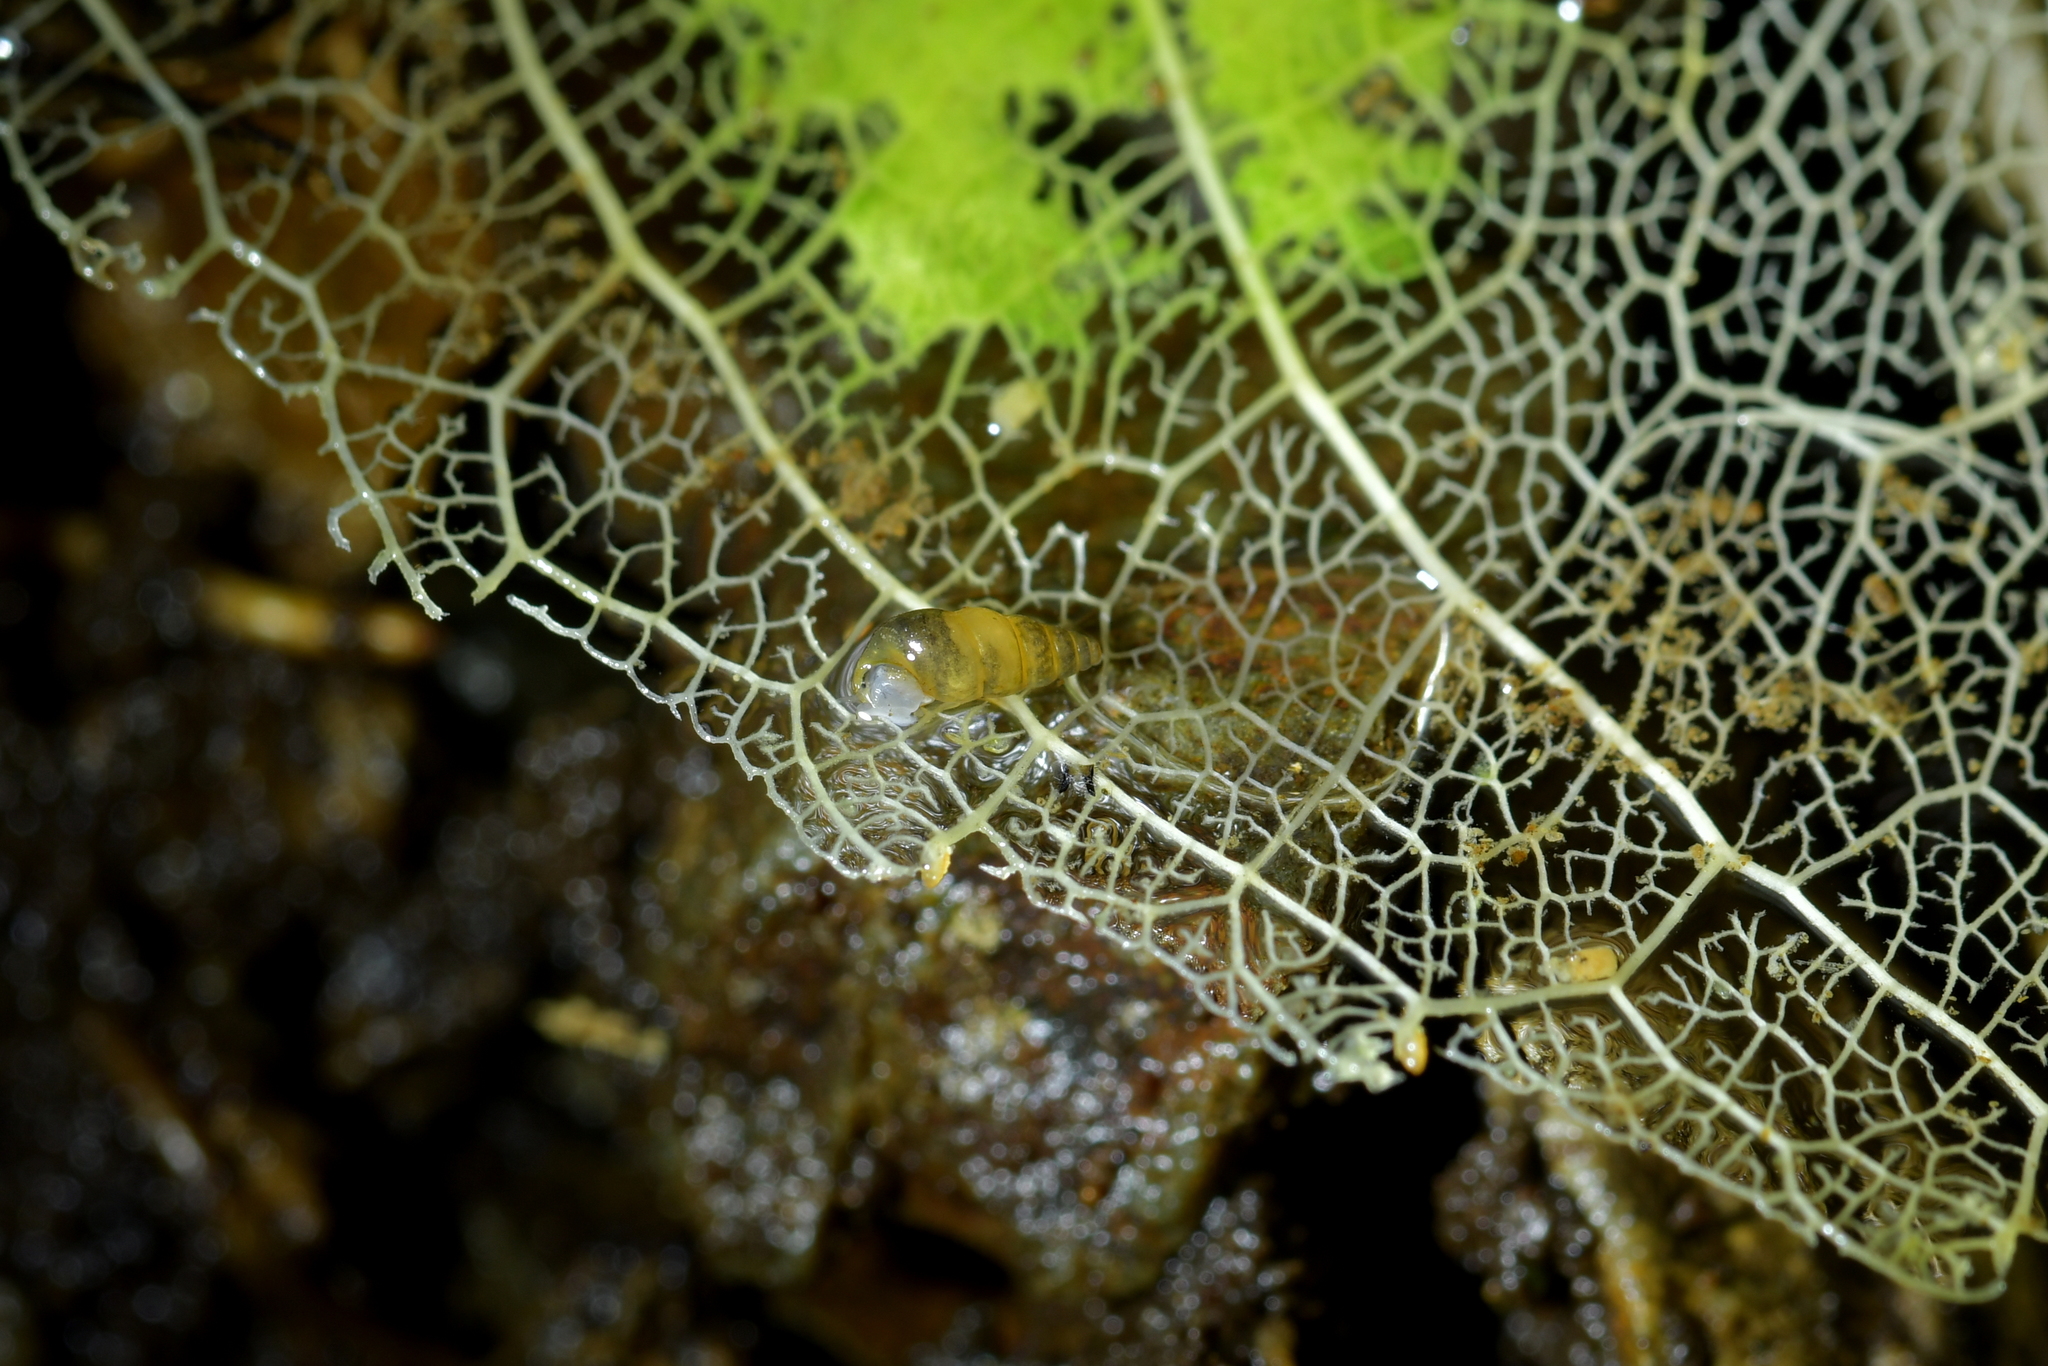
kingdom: Animalia
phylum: Mollusca
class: Gastropoda
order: Littorinimorpha
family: Tateidae
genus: Potamopyrgus
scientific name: Potamopyrgus oppidanus
